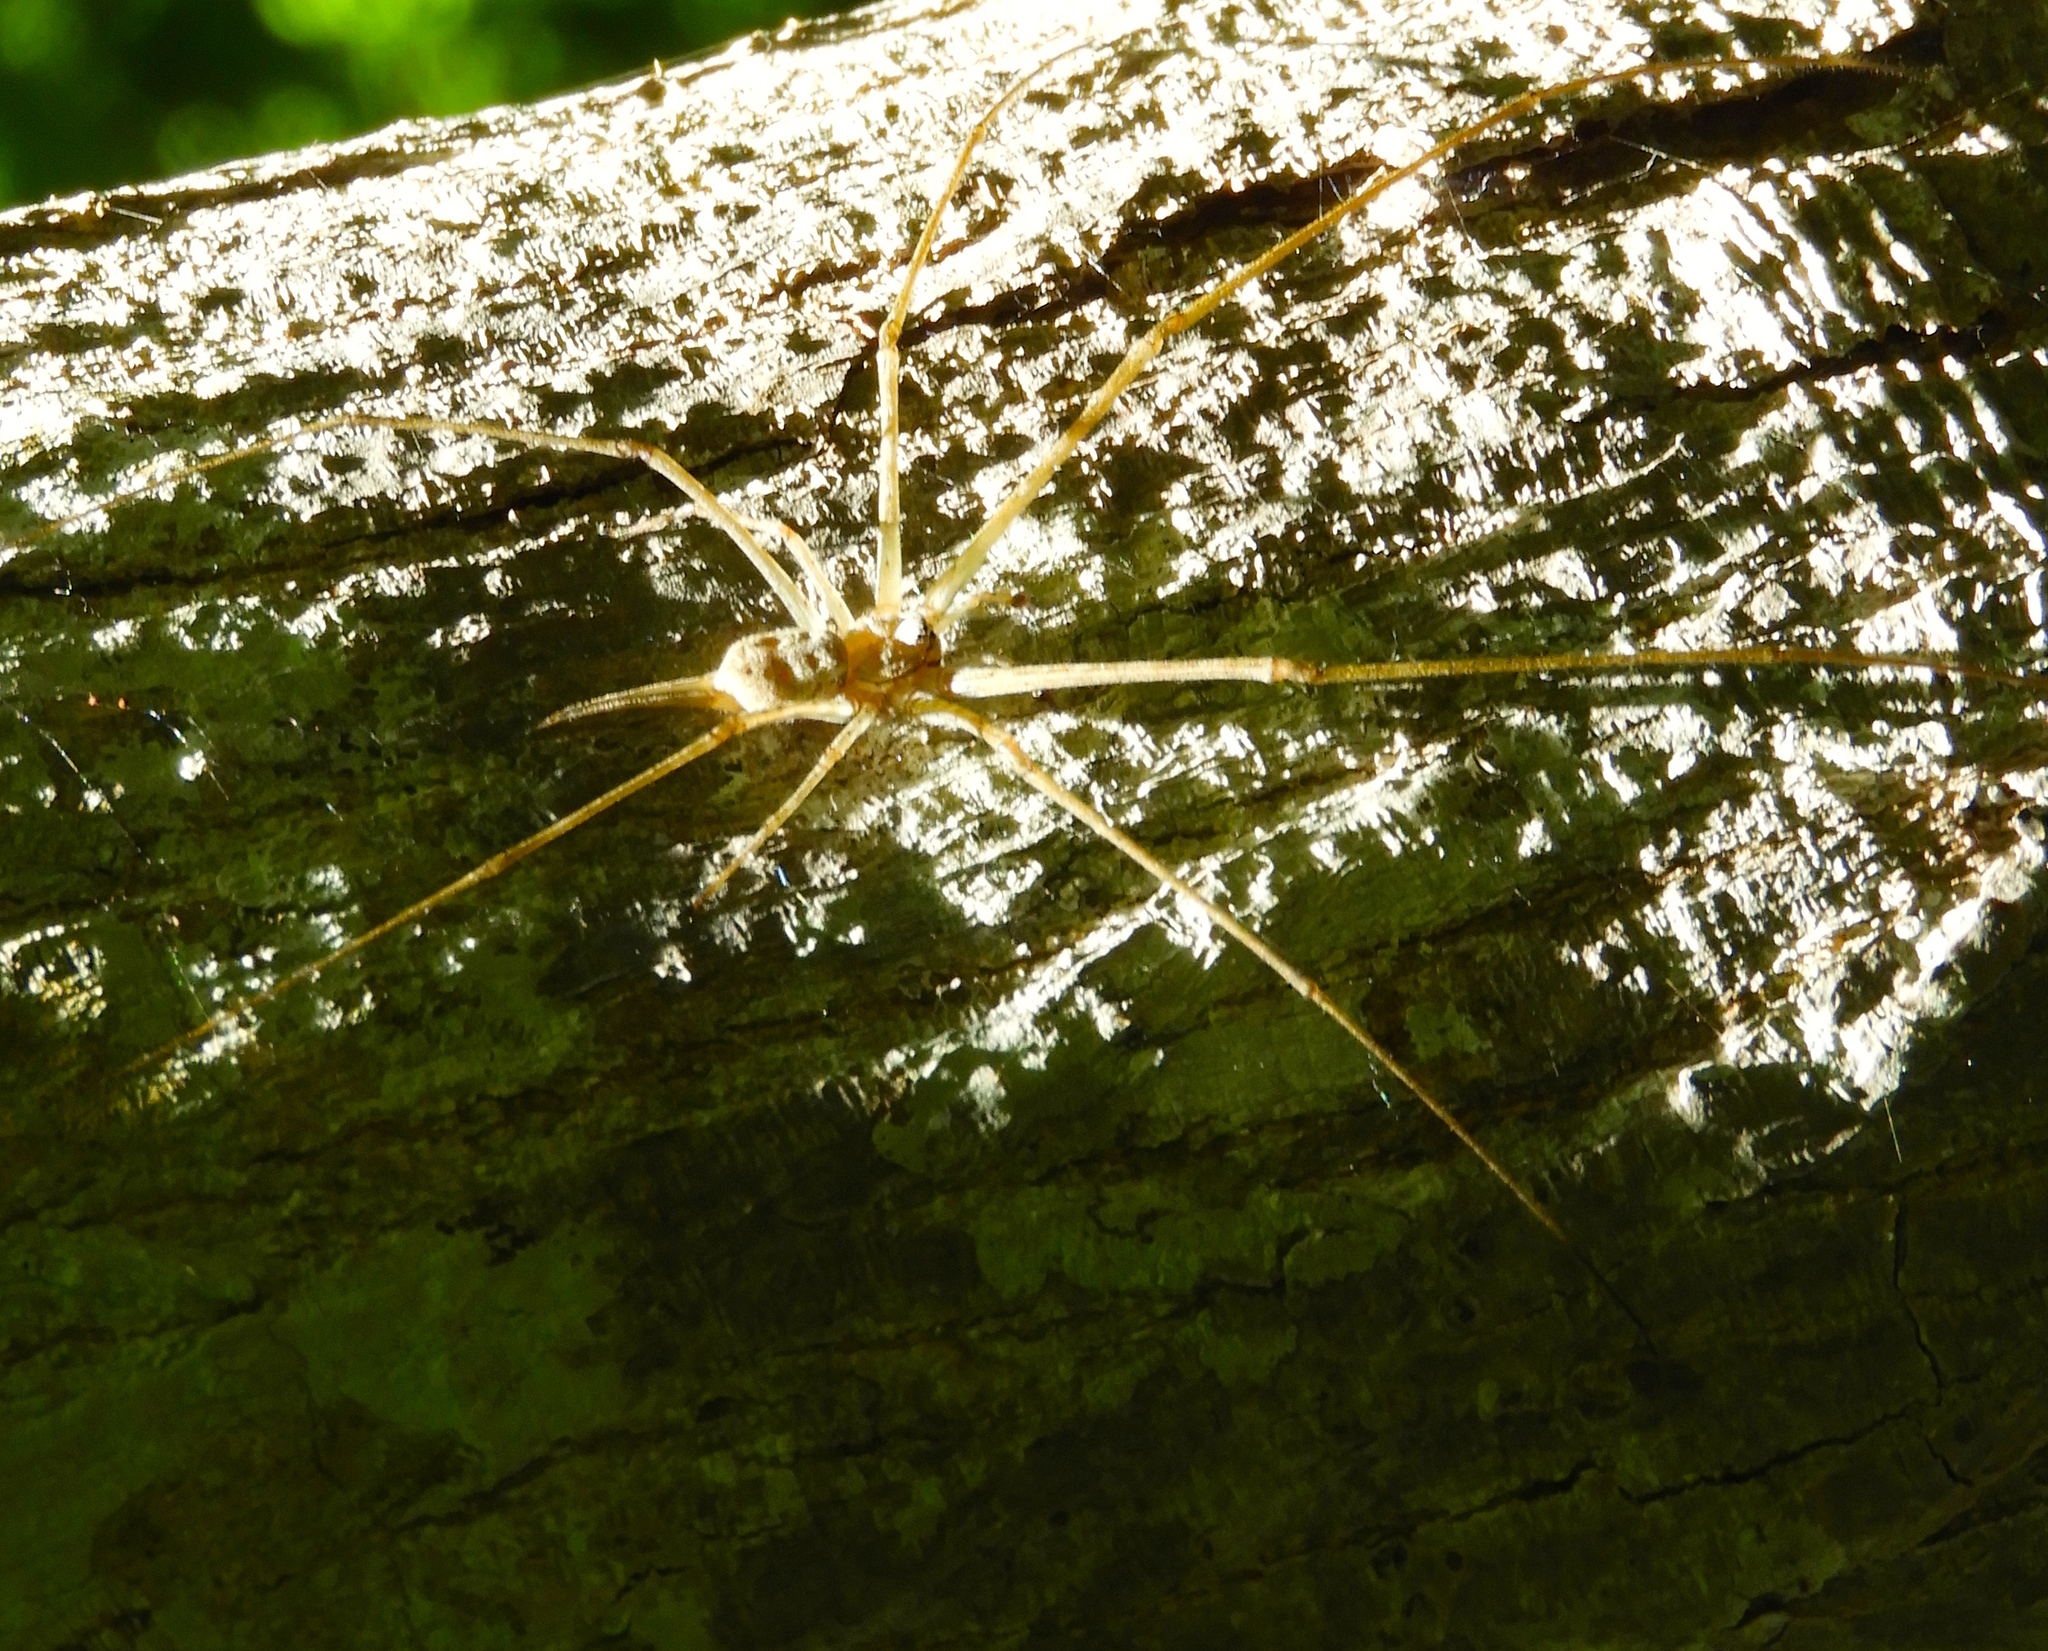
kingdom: Animalia
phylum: Arthropoda
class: Arachnida
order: Araneae
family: Hersiliidae
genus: Neotama
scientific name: Neotama mexicana
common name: Tree trunk spiders
